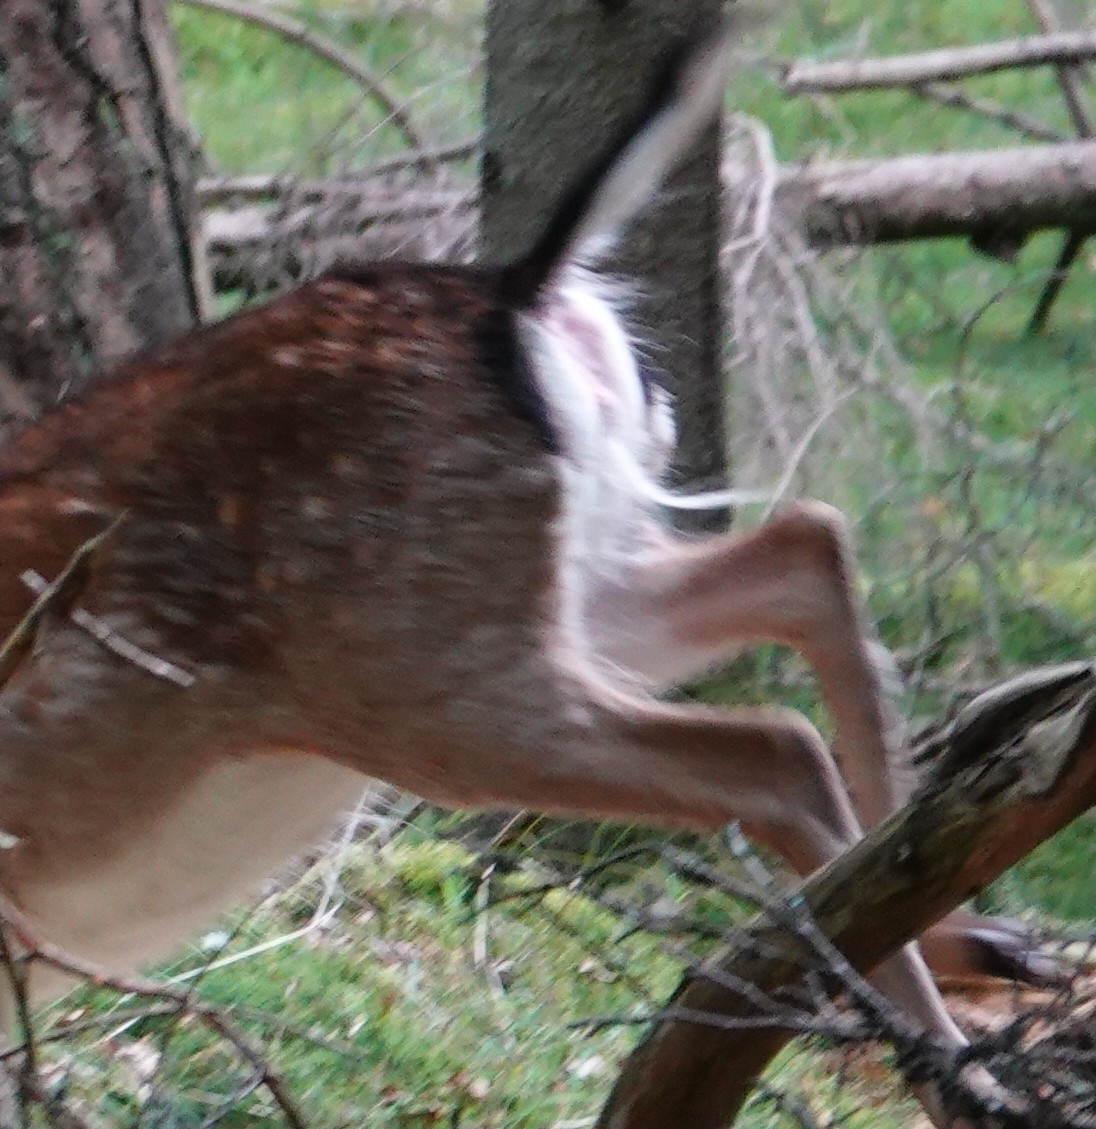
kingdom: Animalia
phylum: Chordata
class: Mammalia
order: Artiodactyla
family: Cervidae
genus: Dama
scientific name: Dama dama
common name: Fallow deer
